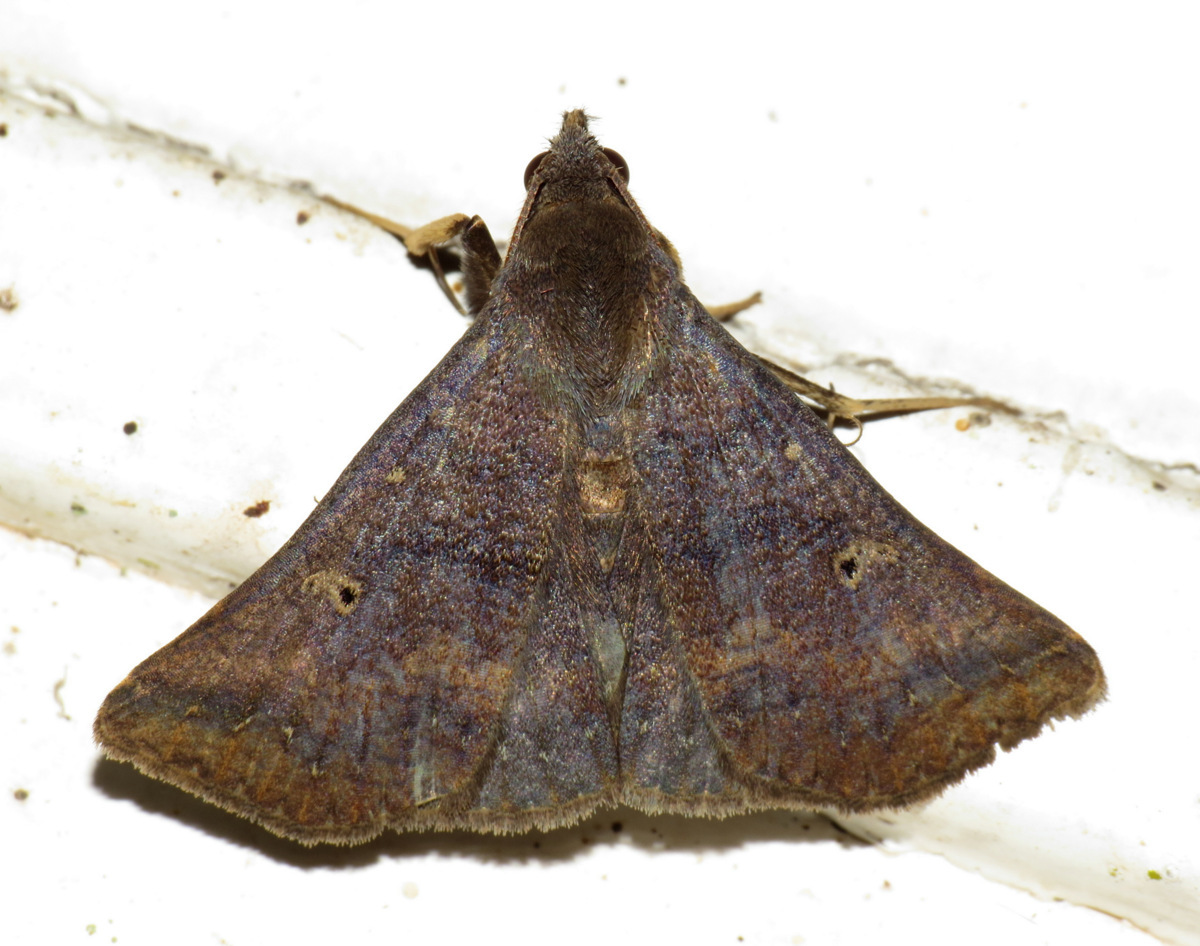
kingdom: Animalia
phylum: Arthropoda
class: Insecta
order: Lepidoptera
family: Erebidae
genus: Renia
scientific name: Renia acclamalis
